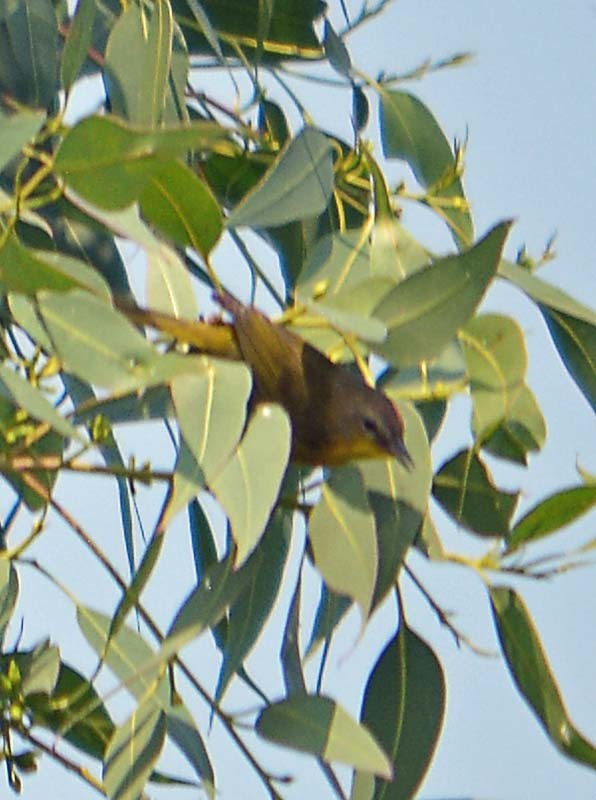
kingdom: Animalia
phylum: Chordata
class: Aves
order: Passeriformes
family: Parulidae
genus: Leiothlypis
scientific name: Leiothlypis celata
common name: Orange-crowned warbler
